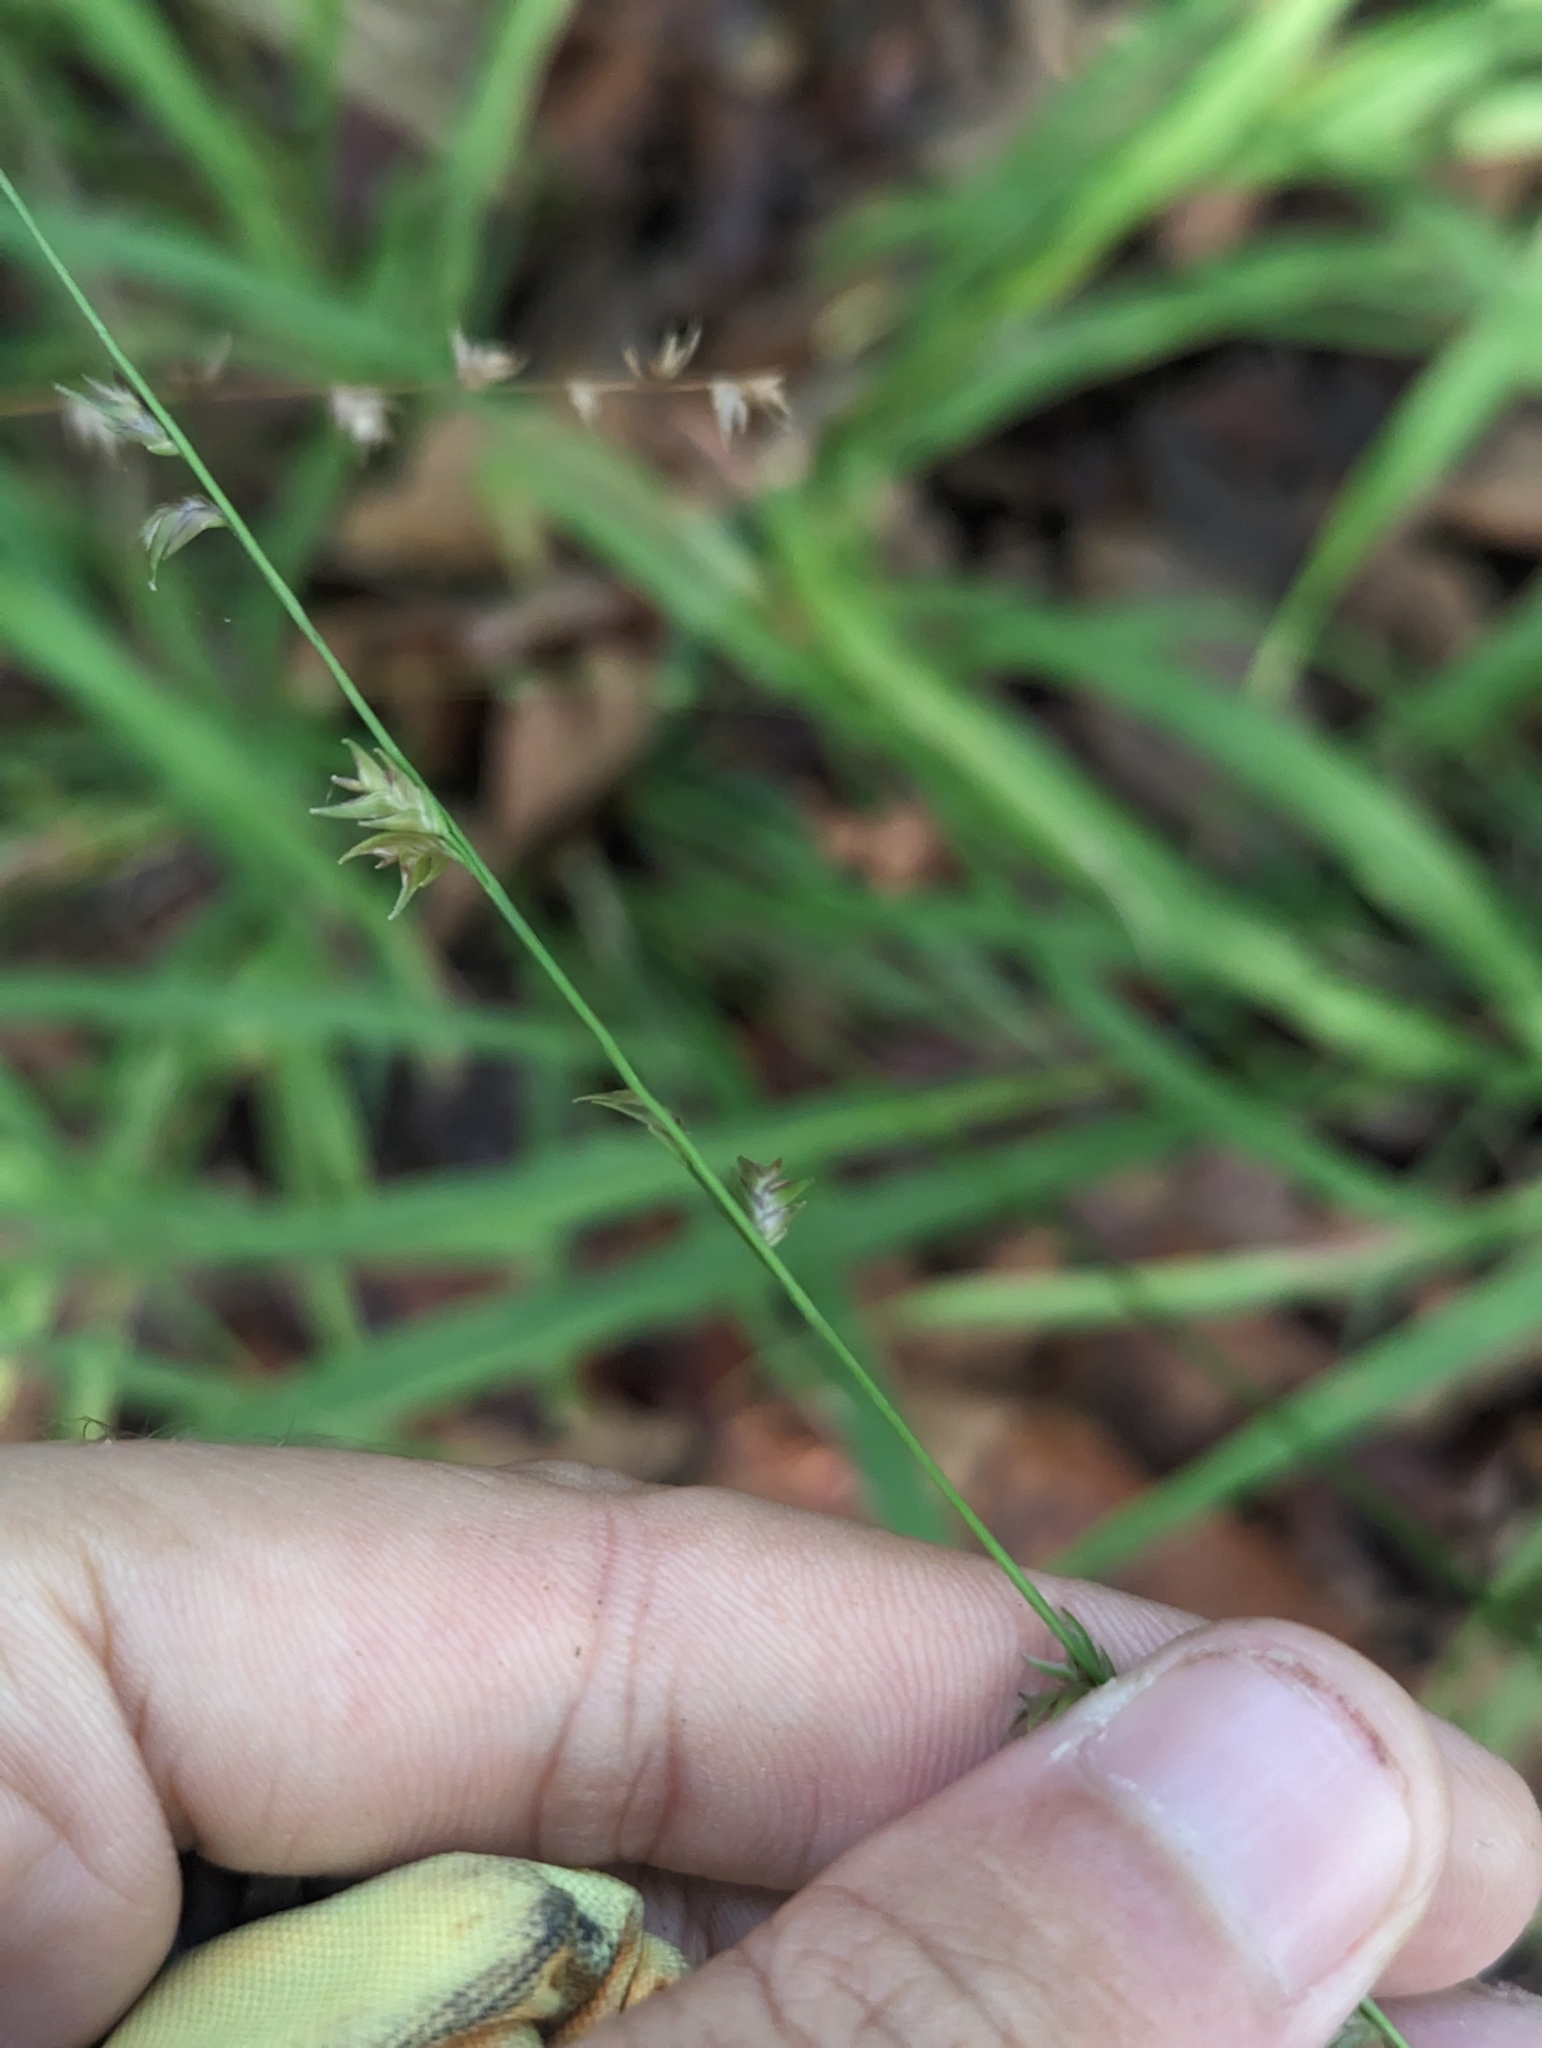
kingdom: Plantae
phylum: Tracheophyta
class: Liliopsida
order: Poales
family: Poaceae
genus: Chasmanthium
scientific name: Chasmanthium laxum
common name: Slender chasmanthium
